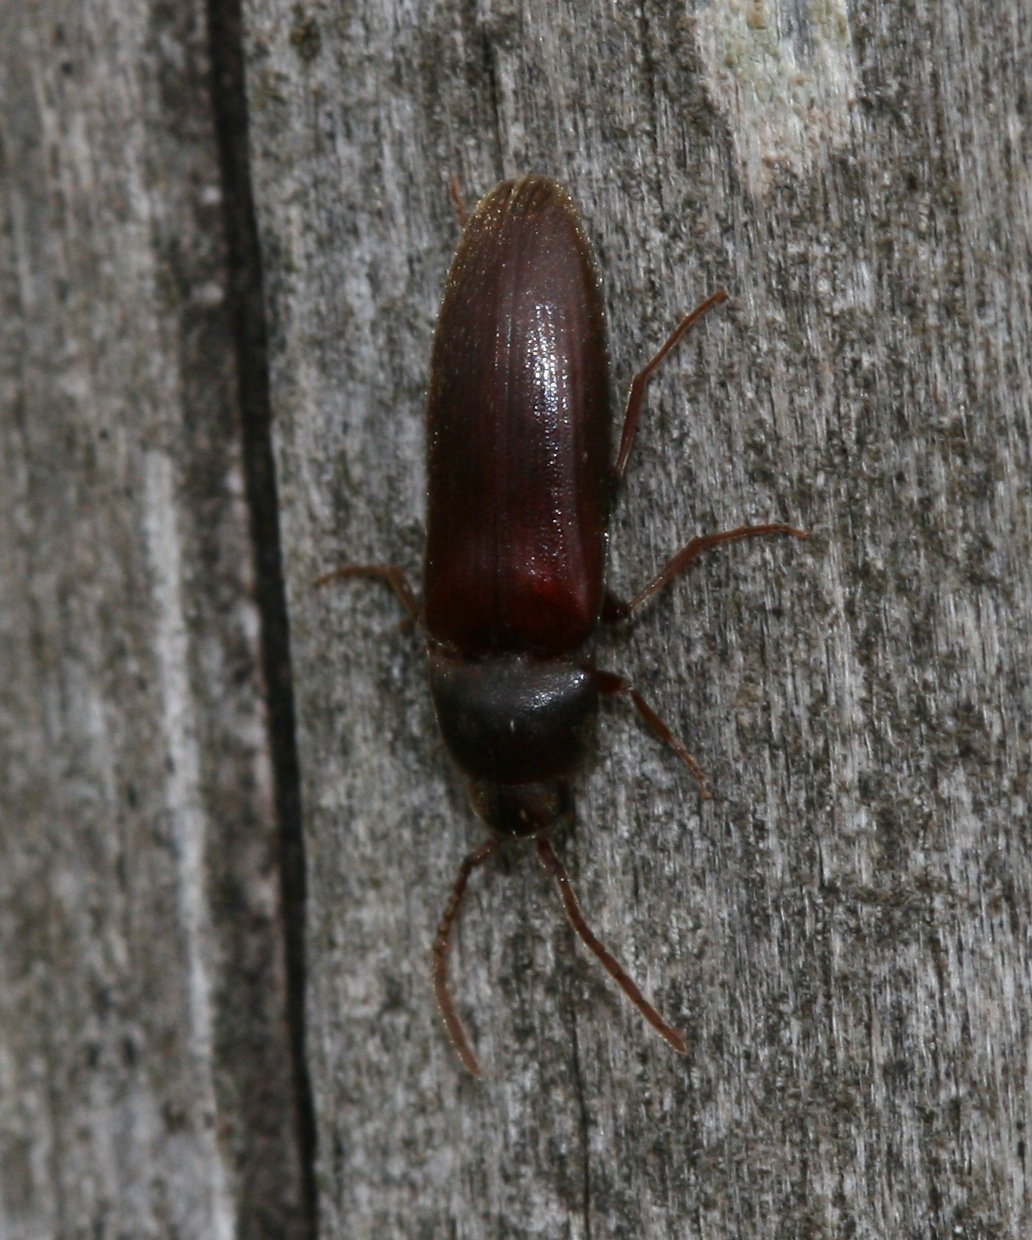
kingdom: Animalia
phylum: Arthropoda
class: Insecta
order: Coleoptera
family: Eucnemidae
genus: Epiphanis
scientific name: Epiphanis cornutus
